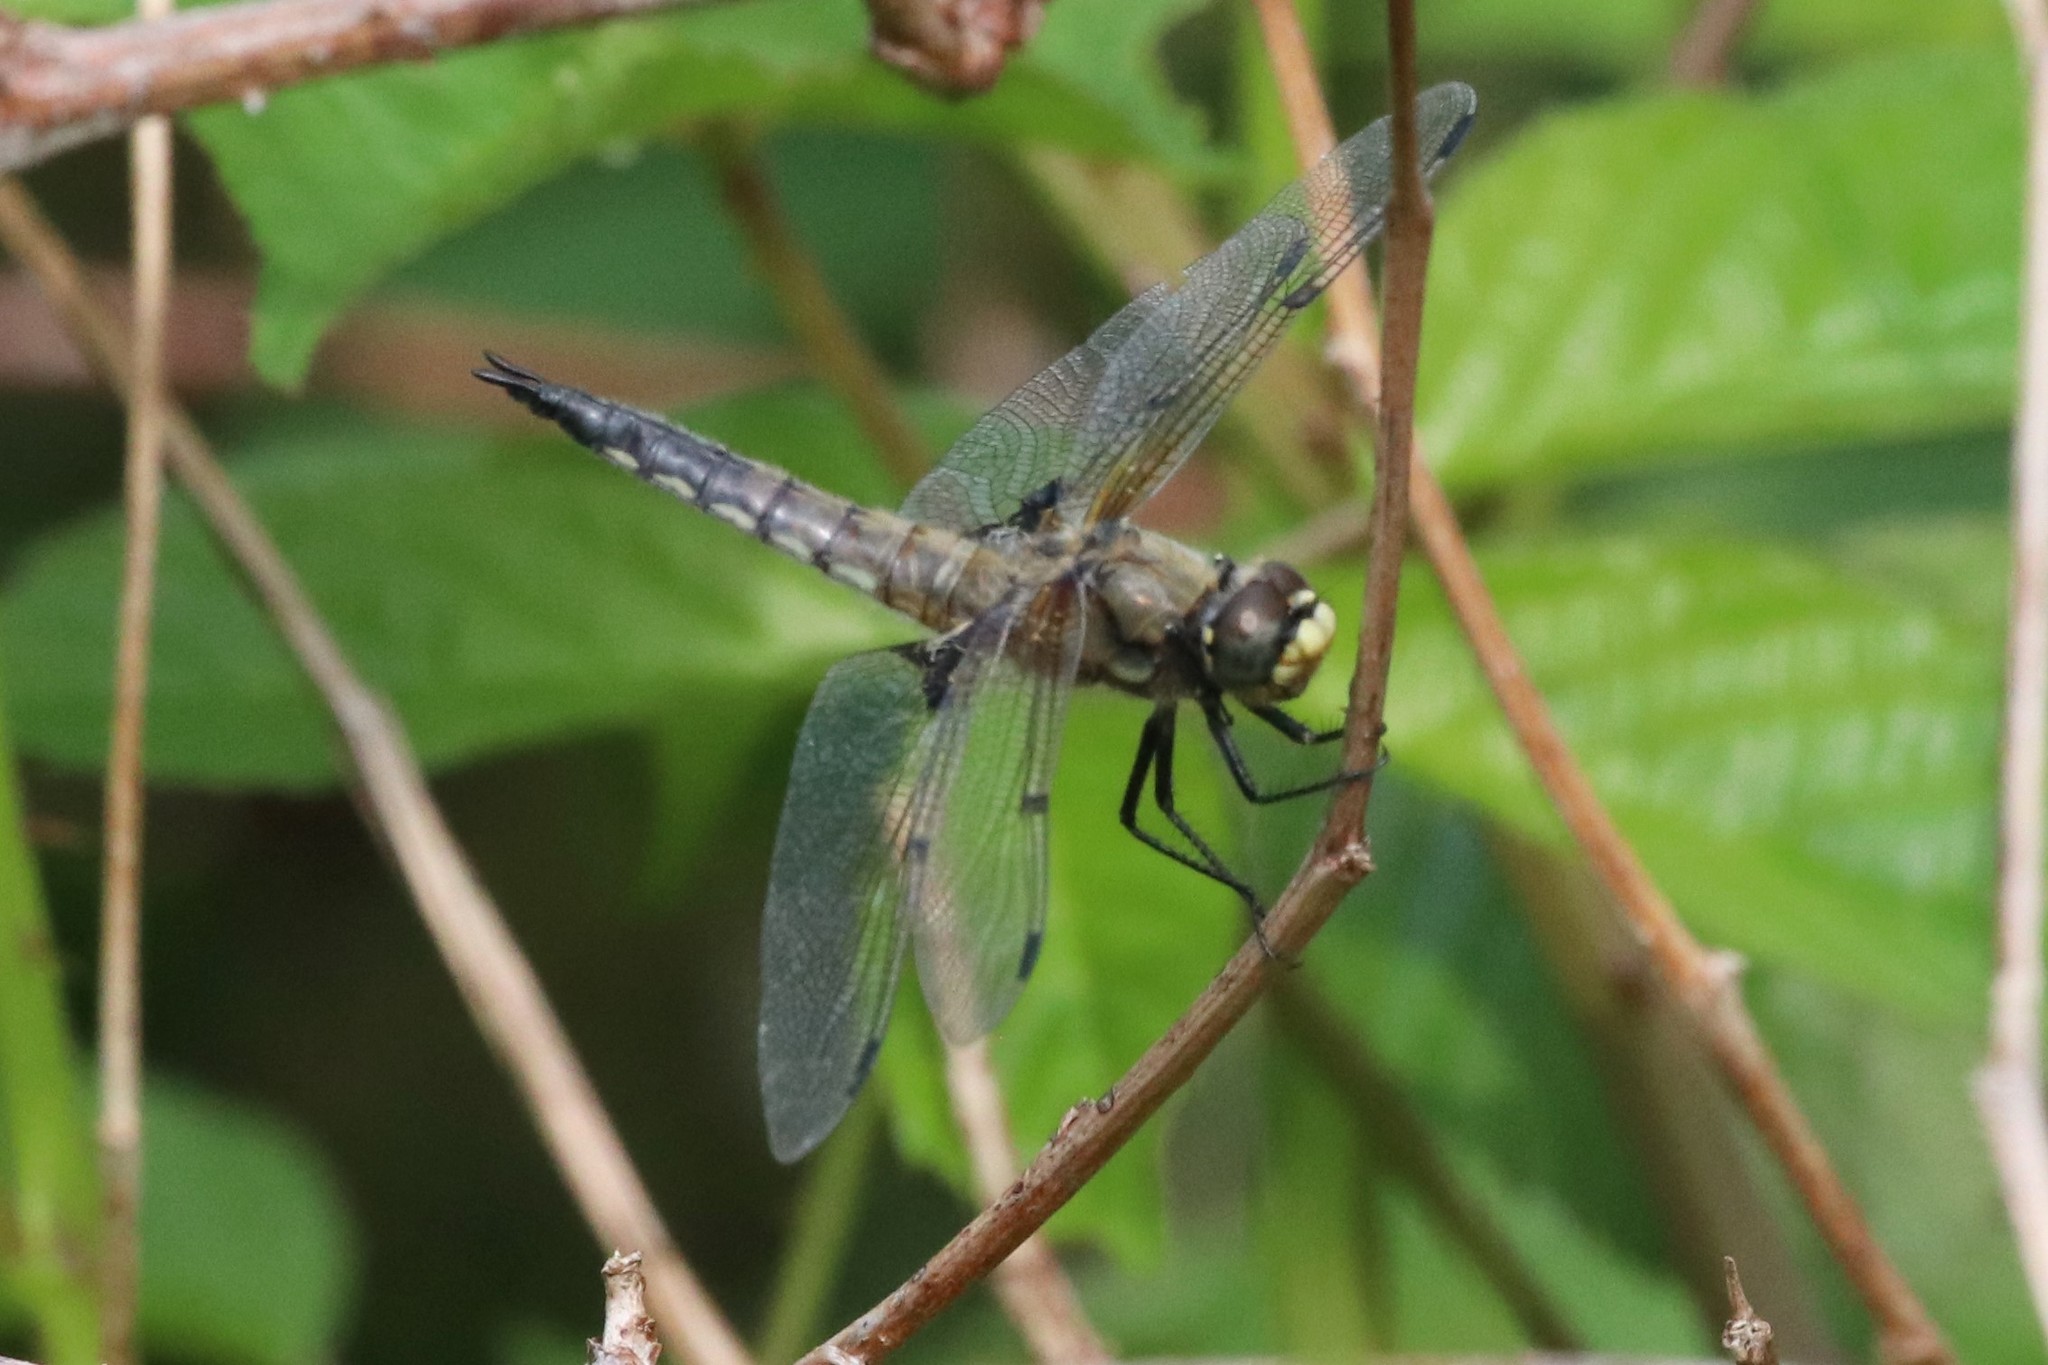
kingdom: Animalia
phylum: Arthropoda
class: Insecta
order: Odonata
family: Libellulidae
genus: Libellula
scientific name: Libellula quadrimaculata
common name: Four-spotted chaser
